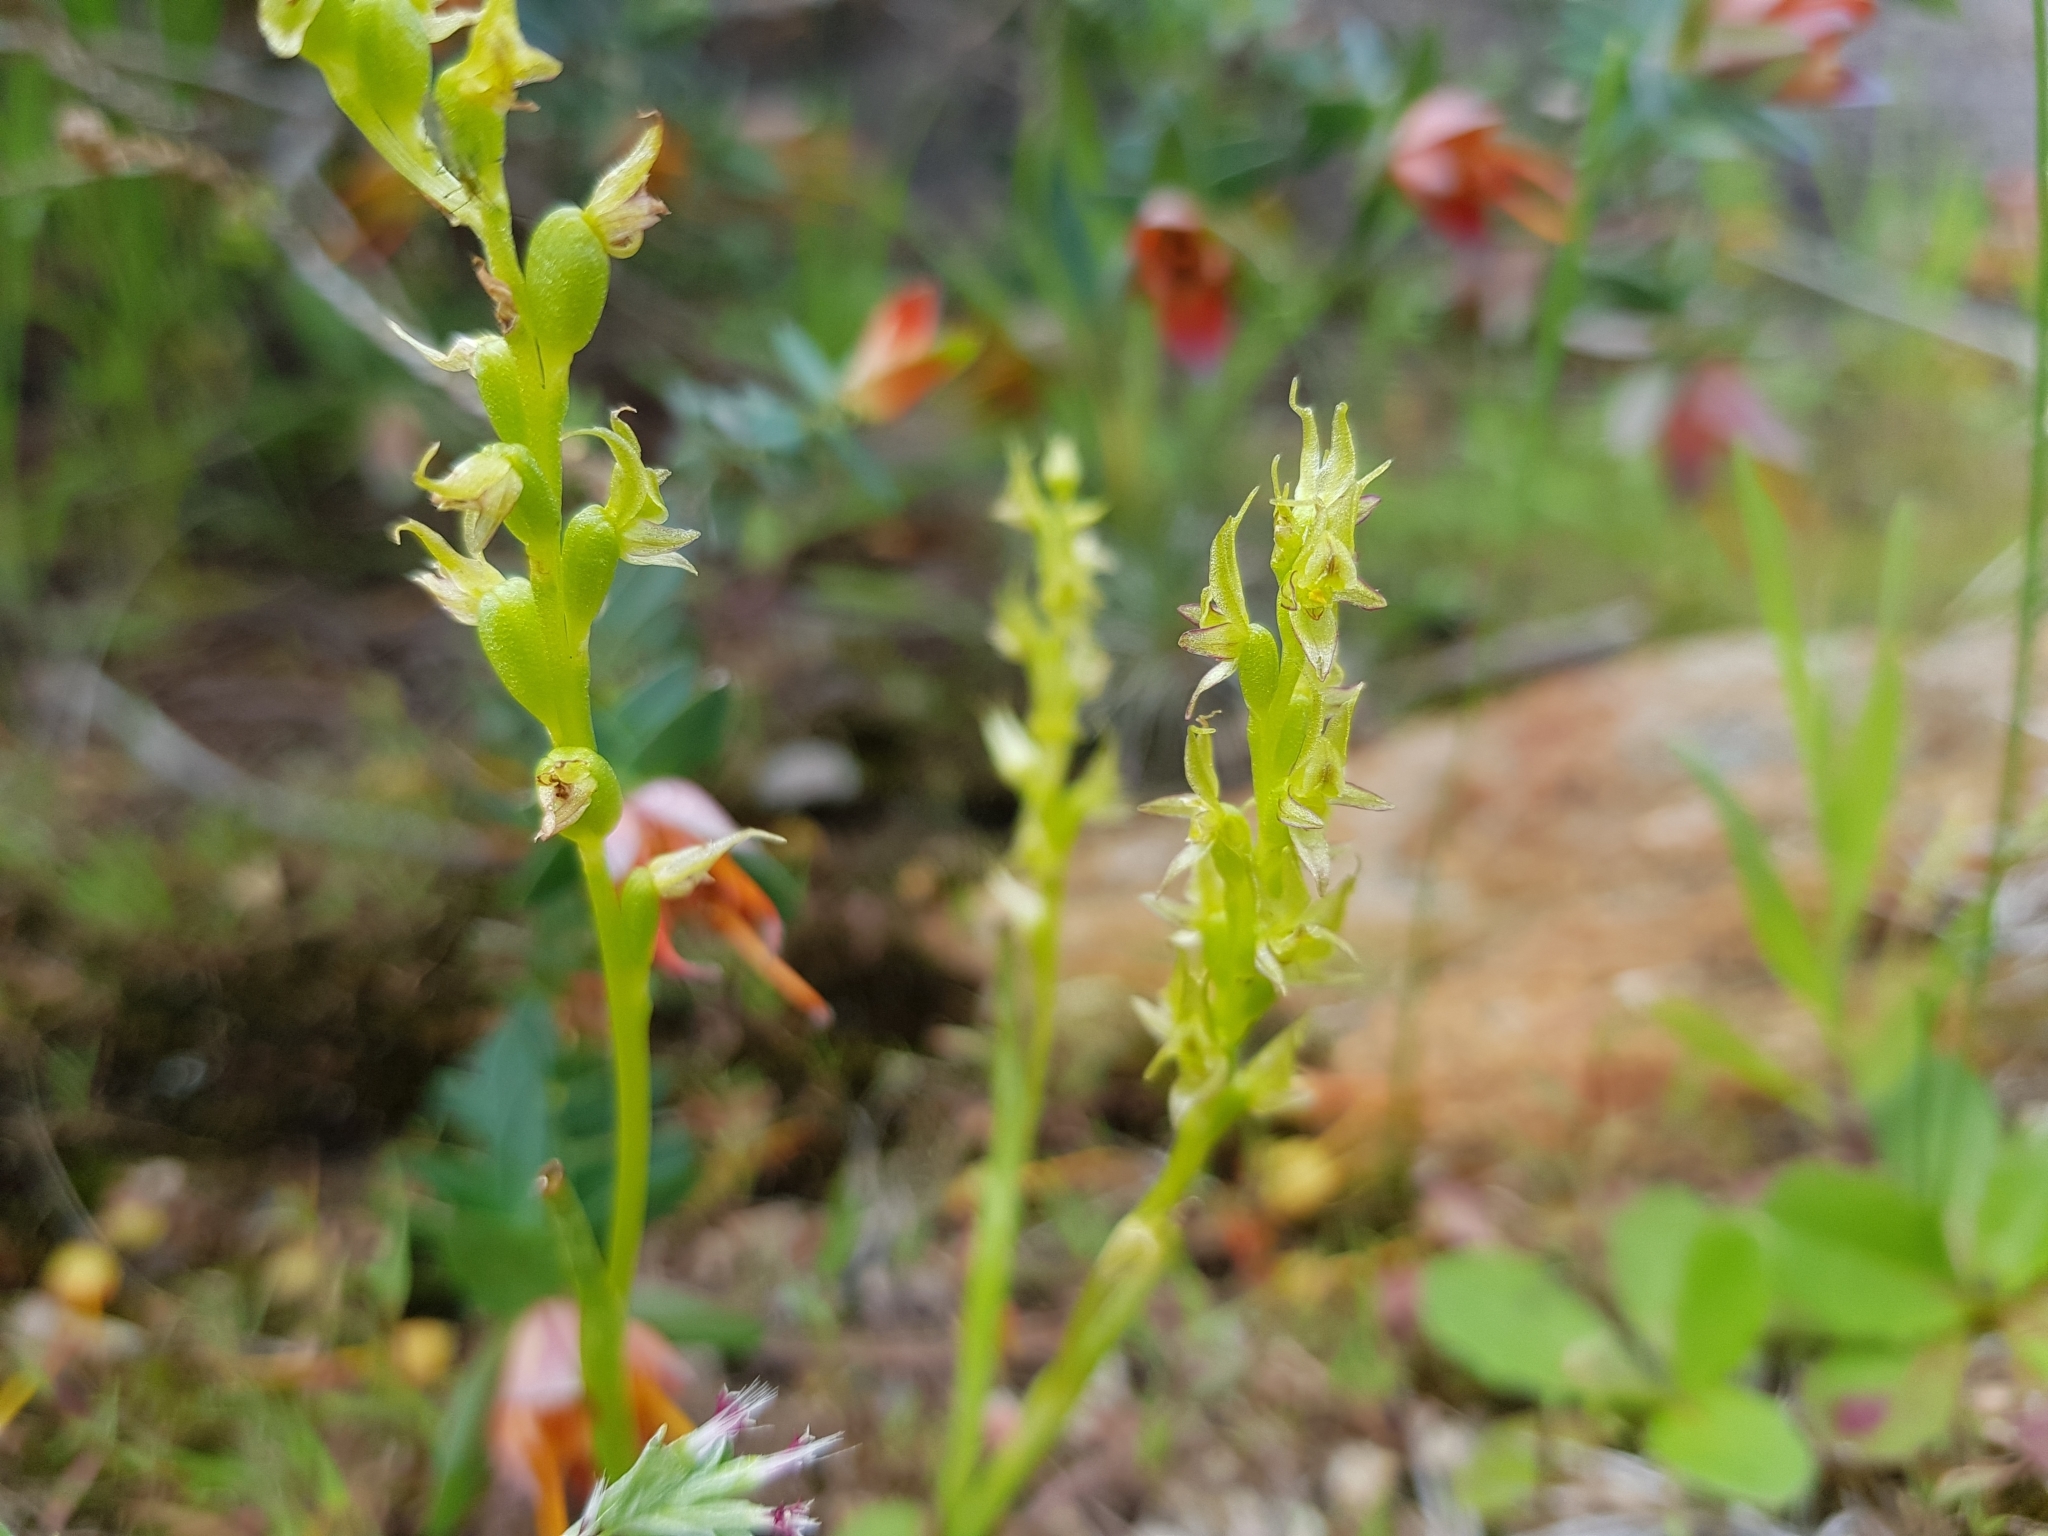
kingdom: Plantae
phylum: Tracheophyta
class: Liliopsida
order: Asparagales
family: Orchidaceae
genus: Prasophyllum
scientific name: Prasophyllum gracile
